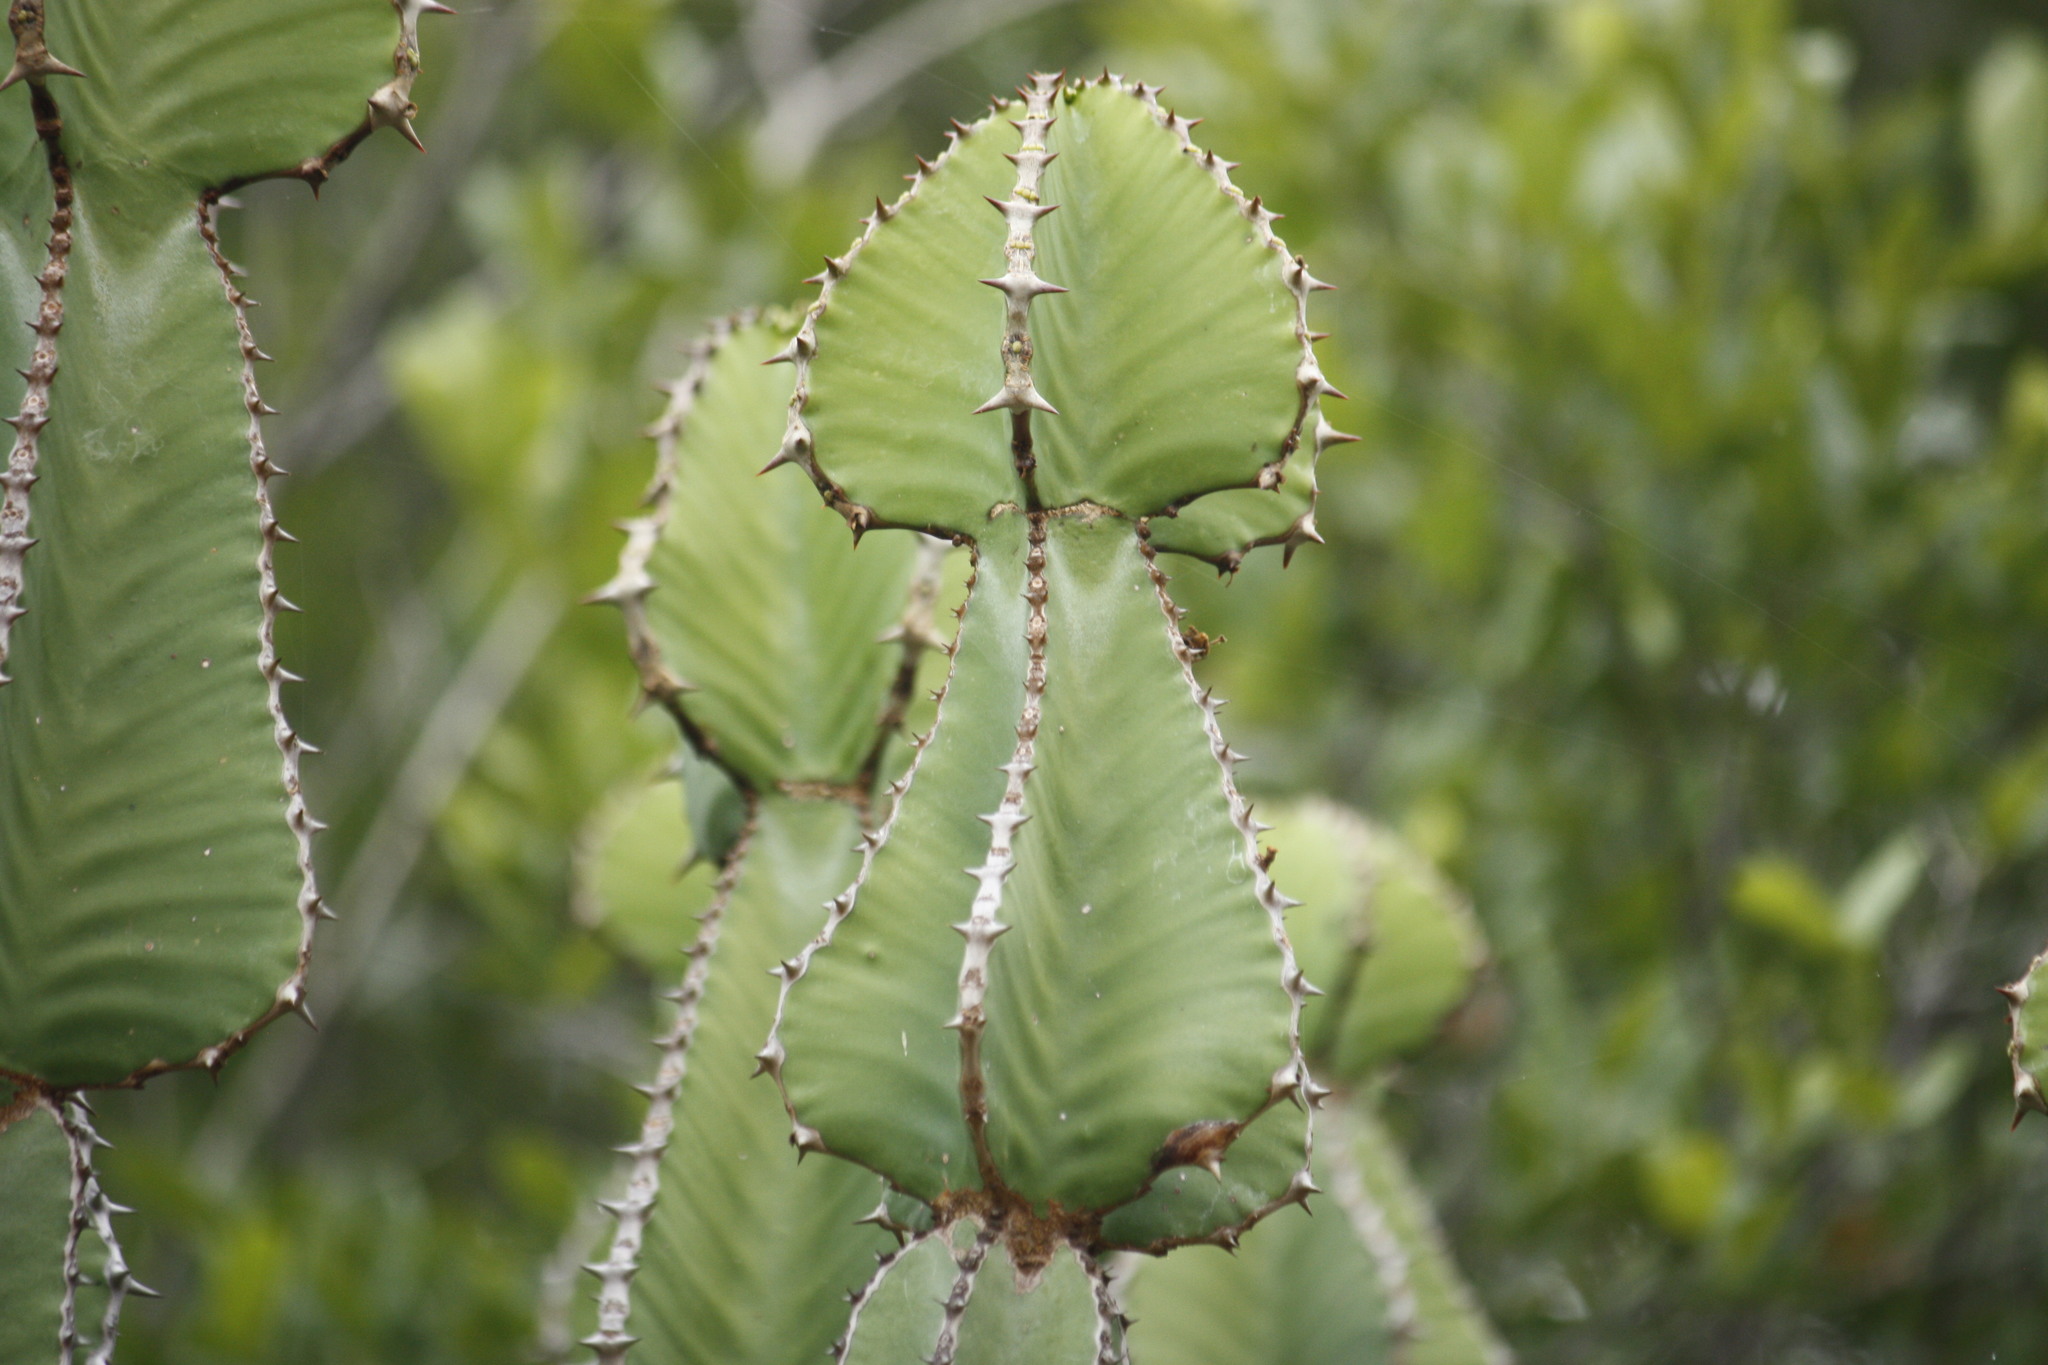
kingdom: Plantae
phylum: Tracheophyta
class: Magnoliopsida
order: Malpighiales
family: Euphorbiaceae
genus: Euphorbia
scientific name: Euphorbia cooperi
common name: Candelabra tree
